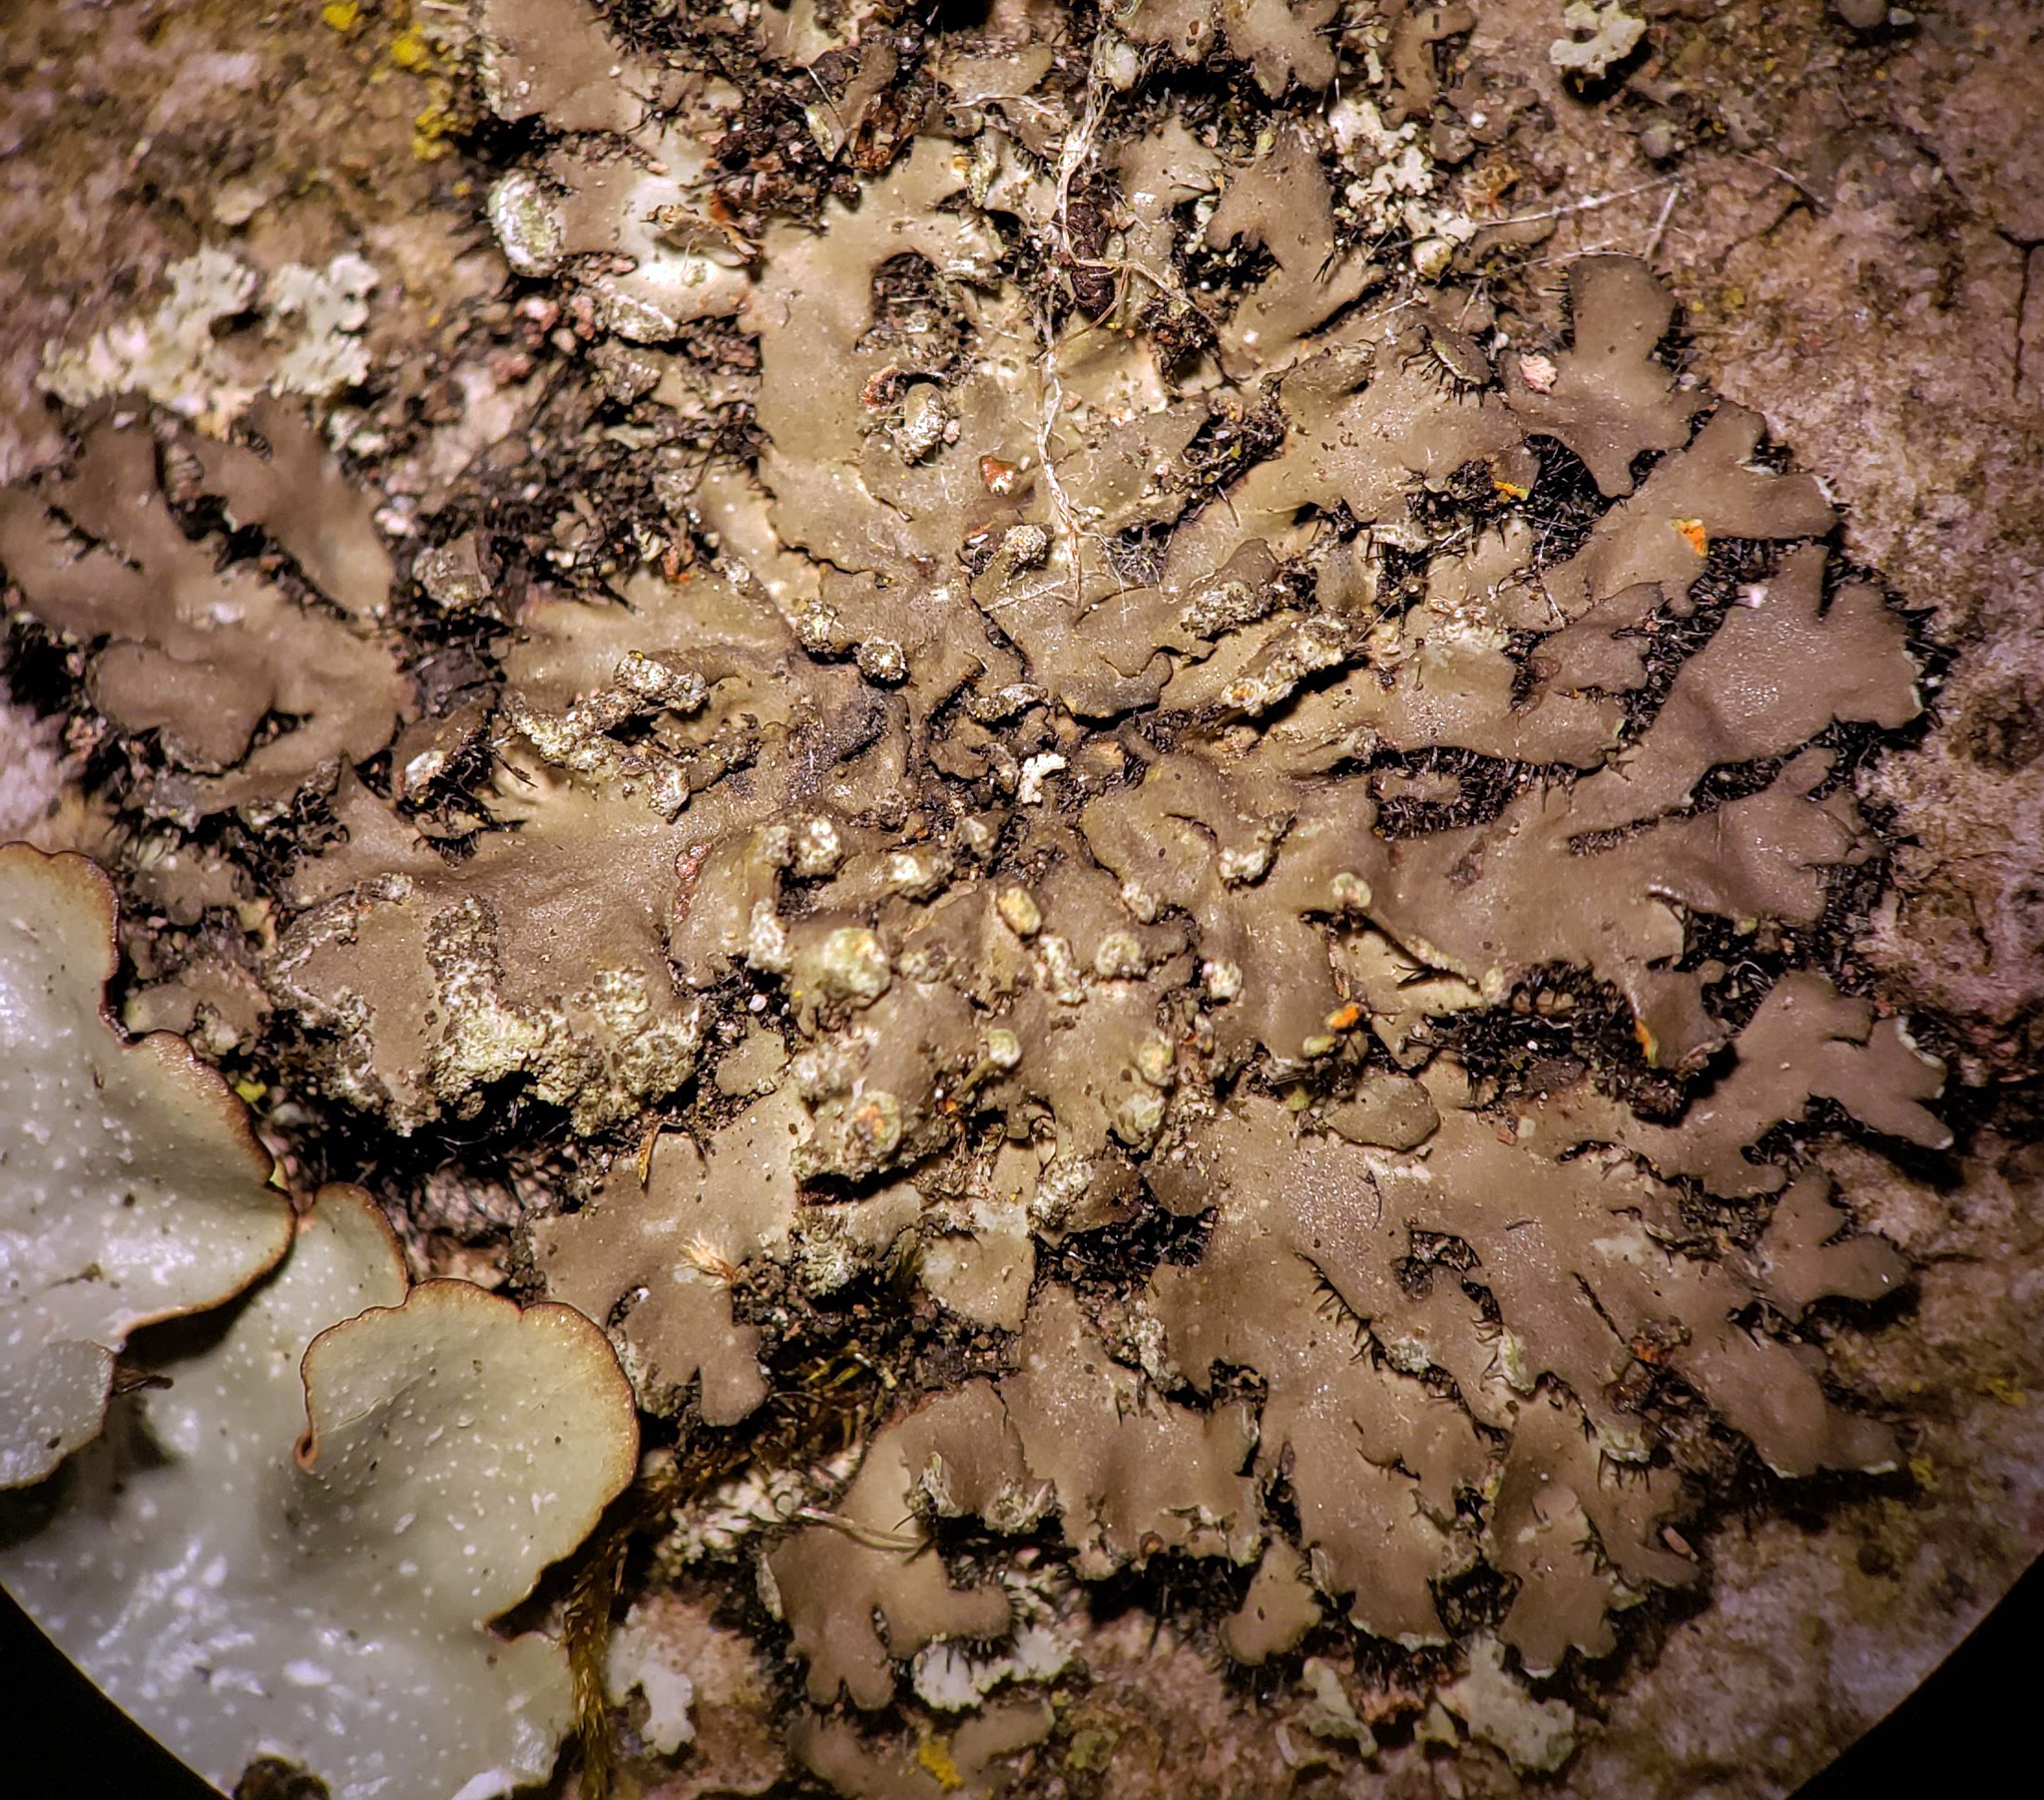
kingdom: Fungi
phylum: Ascomycota
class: Lecanoromycetes
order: Caliciales
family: Physciaceae
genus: Phaeophyscia
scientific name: Phaeophyscia rubropulchra
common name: Orange-cored shadow lichen
